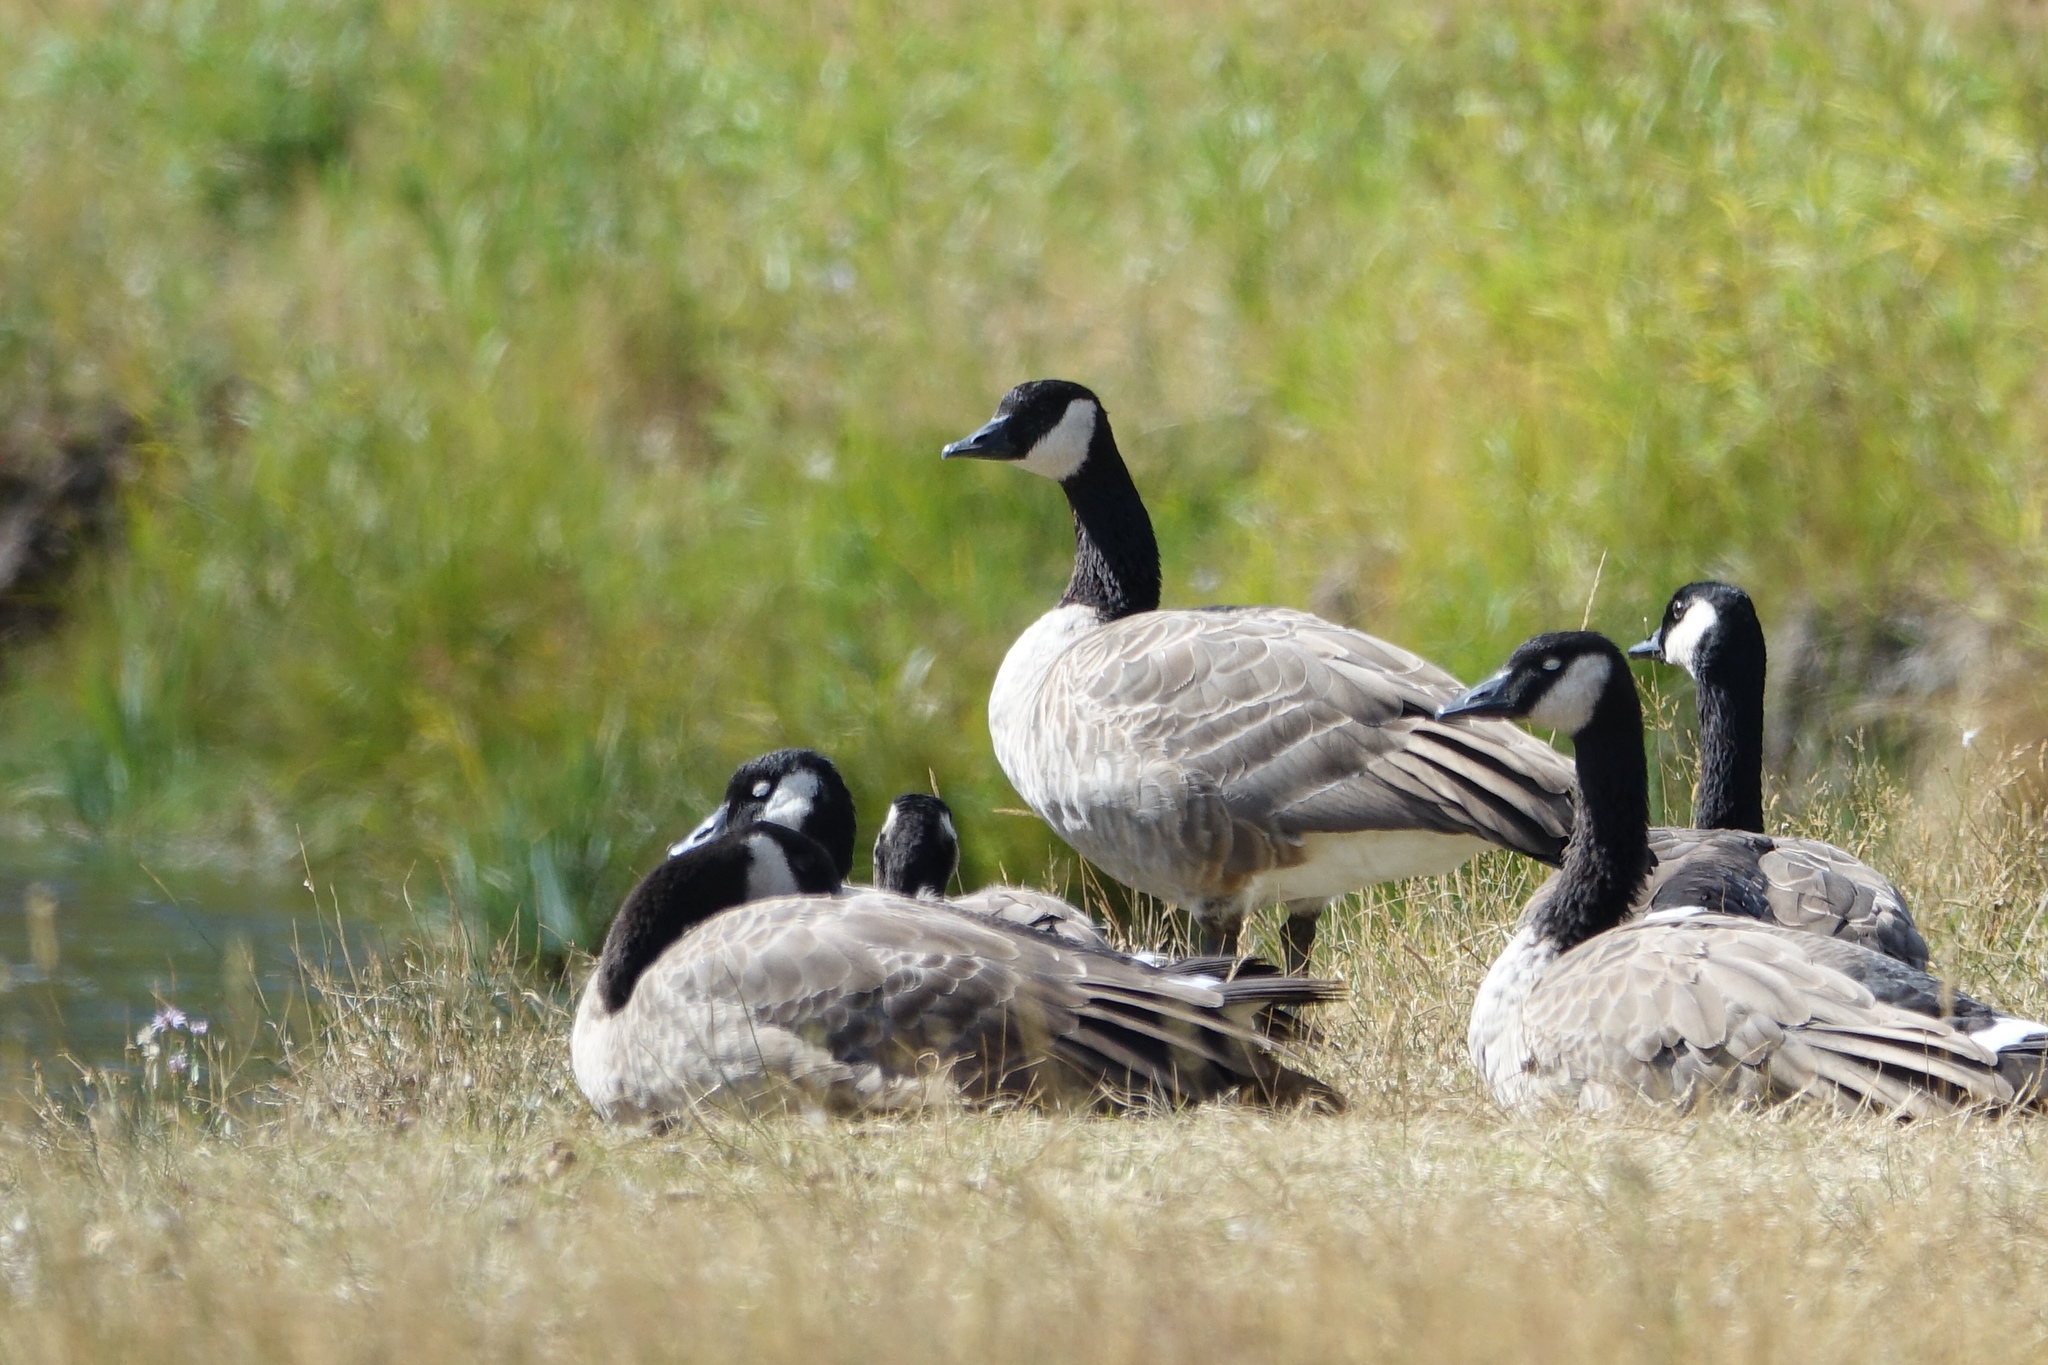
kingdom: Animalia
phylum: Chordata
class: Aves
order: Anseriformes
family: Anatidae
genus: Branta
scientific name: Branta canadensis
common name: Canada goose
